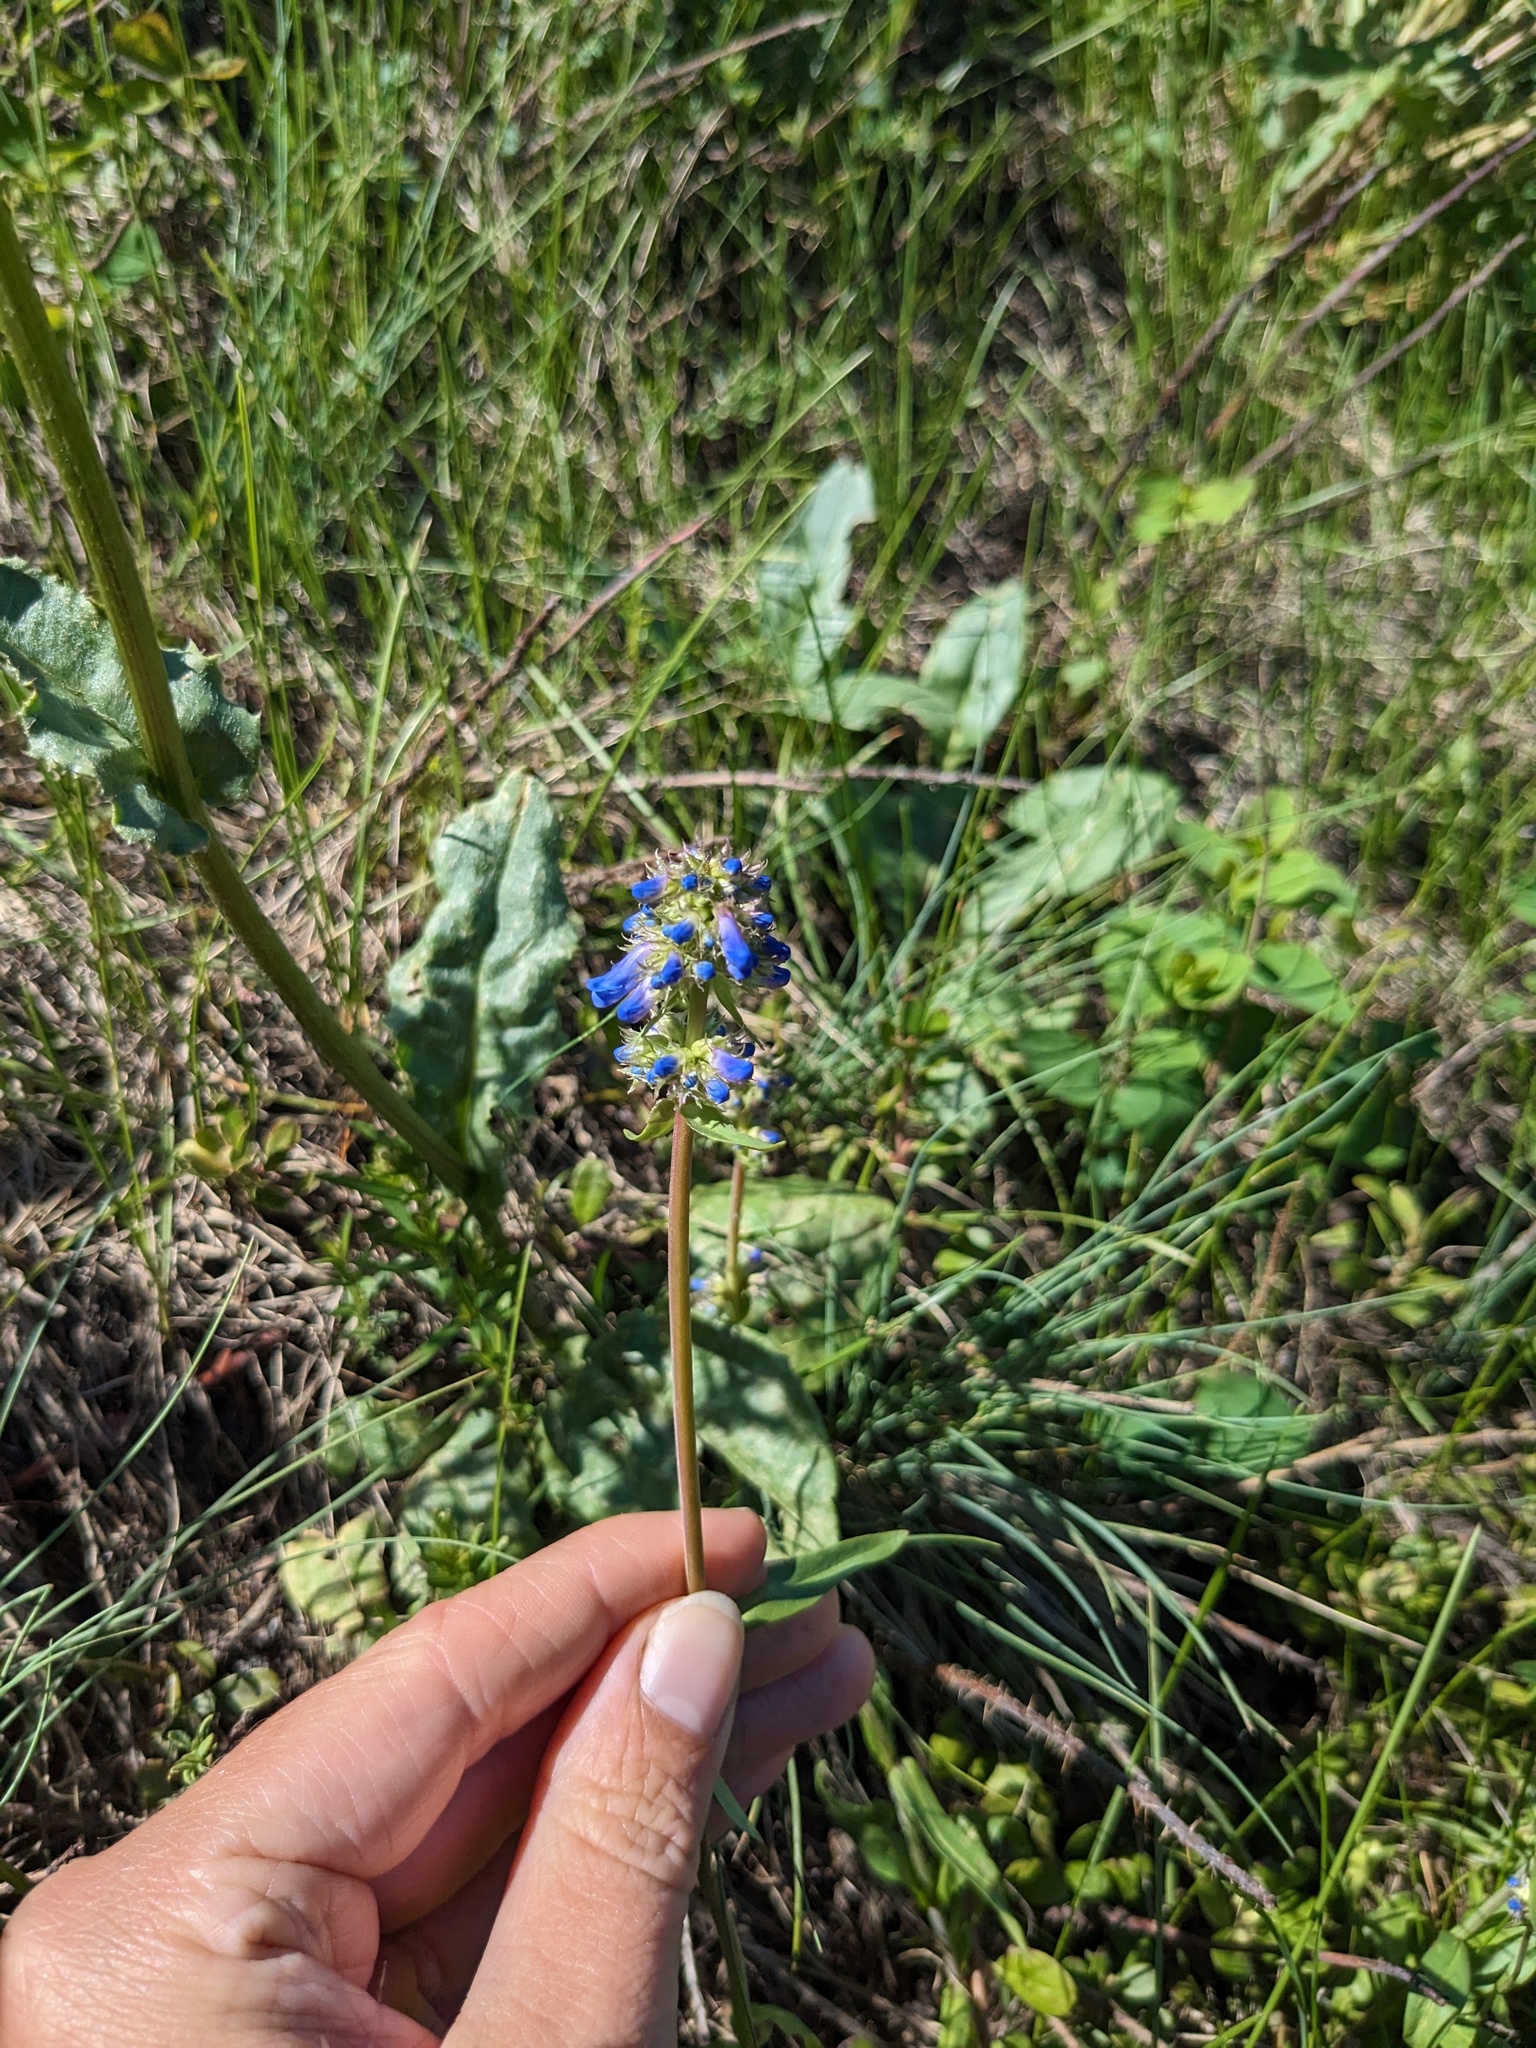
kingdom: Plantae
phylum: Tracheophyta
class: Magnoliopsida
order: Lamiales
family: Plantaginaceae
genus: Penstemon
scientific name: Penstemon procerus
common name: Small-flower penstemon
